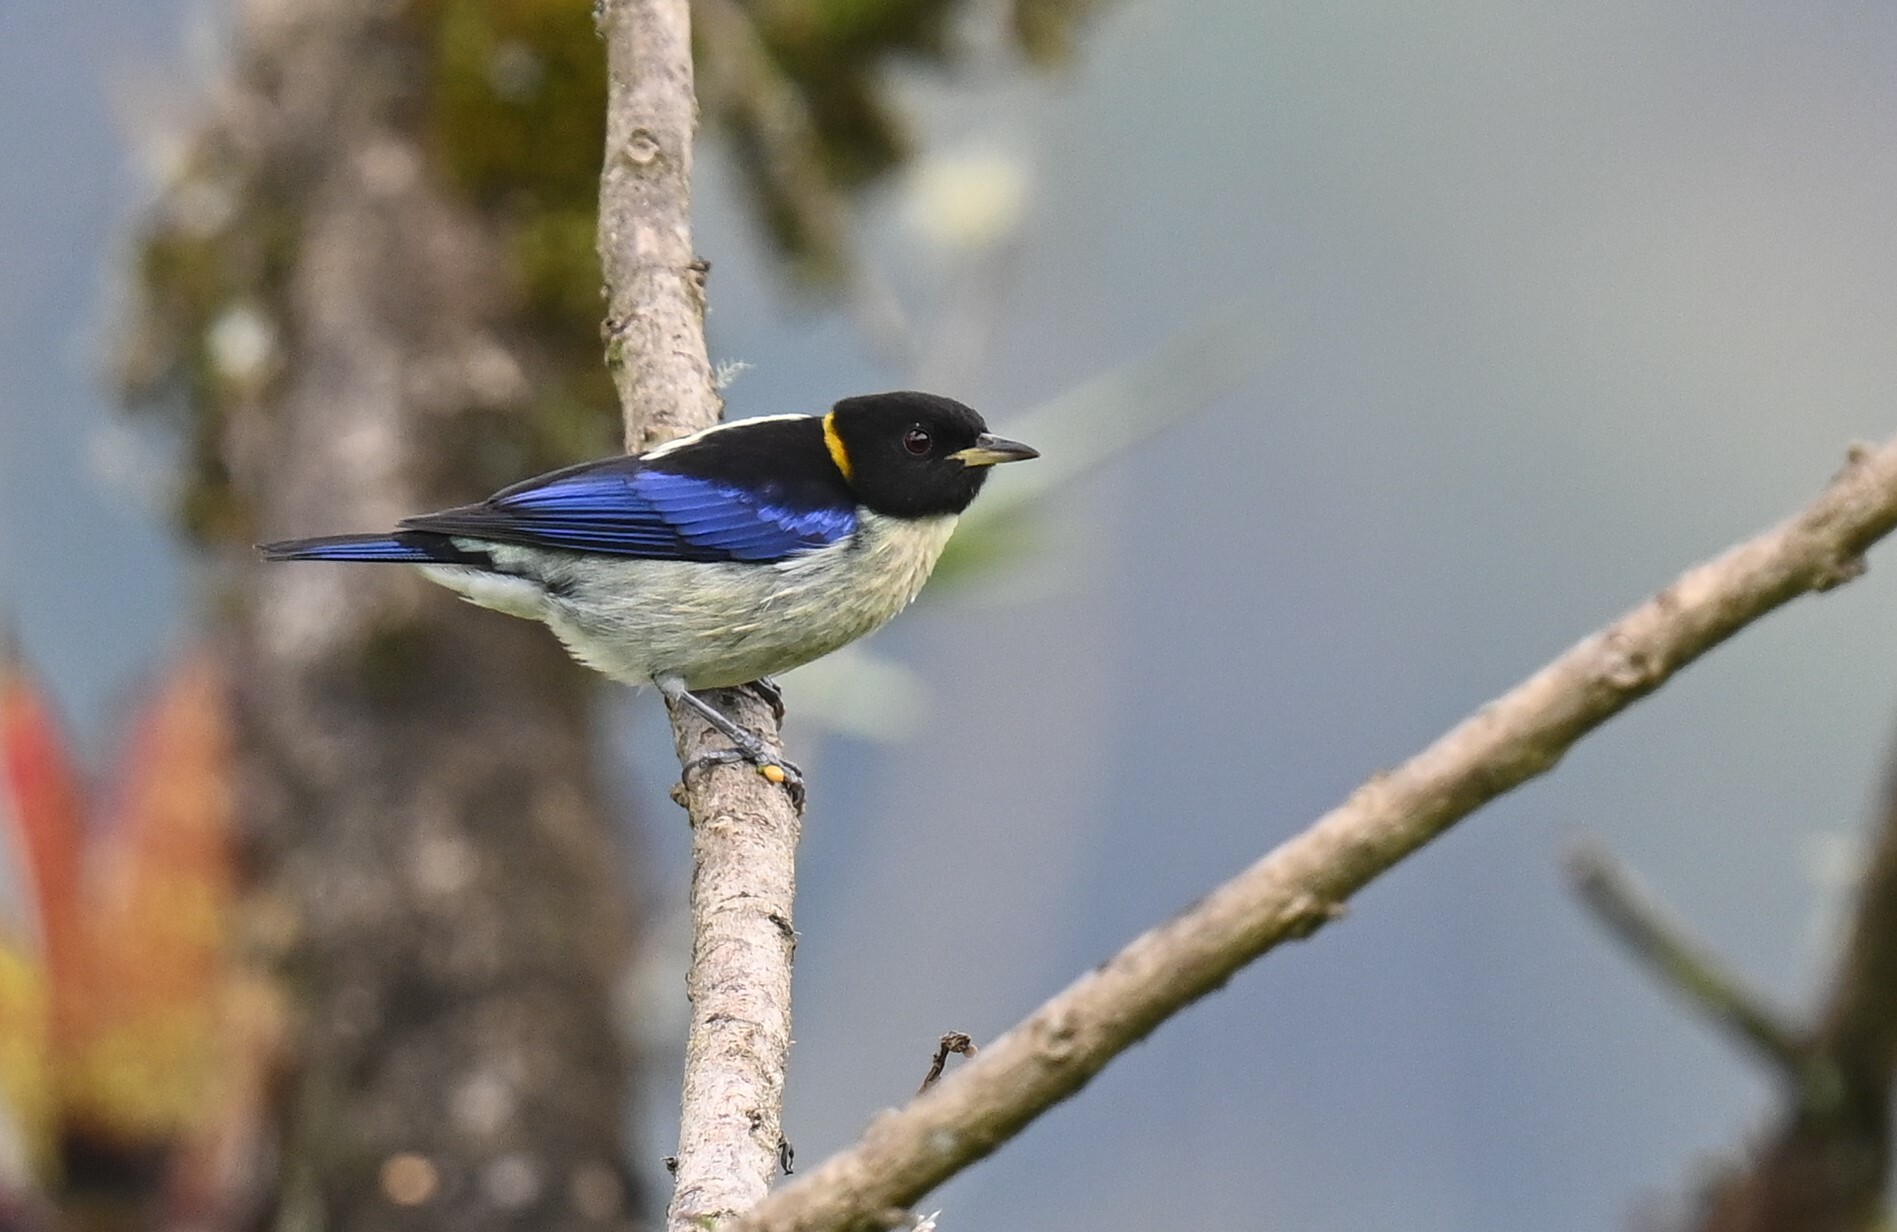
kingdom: Animalia
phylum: Chordata
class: Aves
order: Passeriformes
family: Thraupidae
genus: Iridophanes
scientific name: Iridophanes pulcherrimus
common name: Golden-collared honeycreeper
